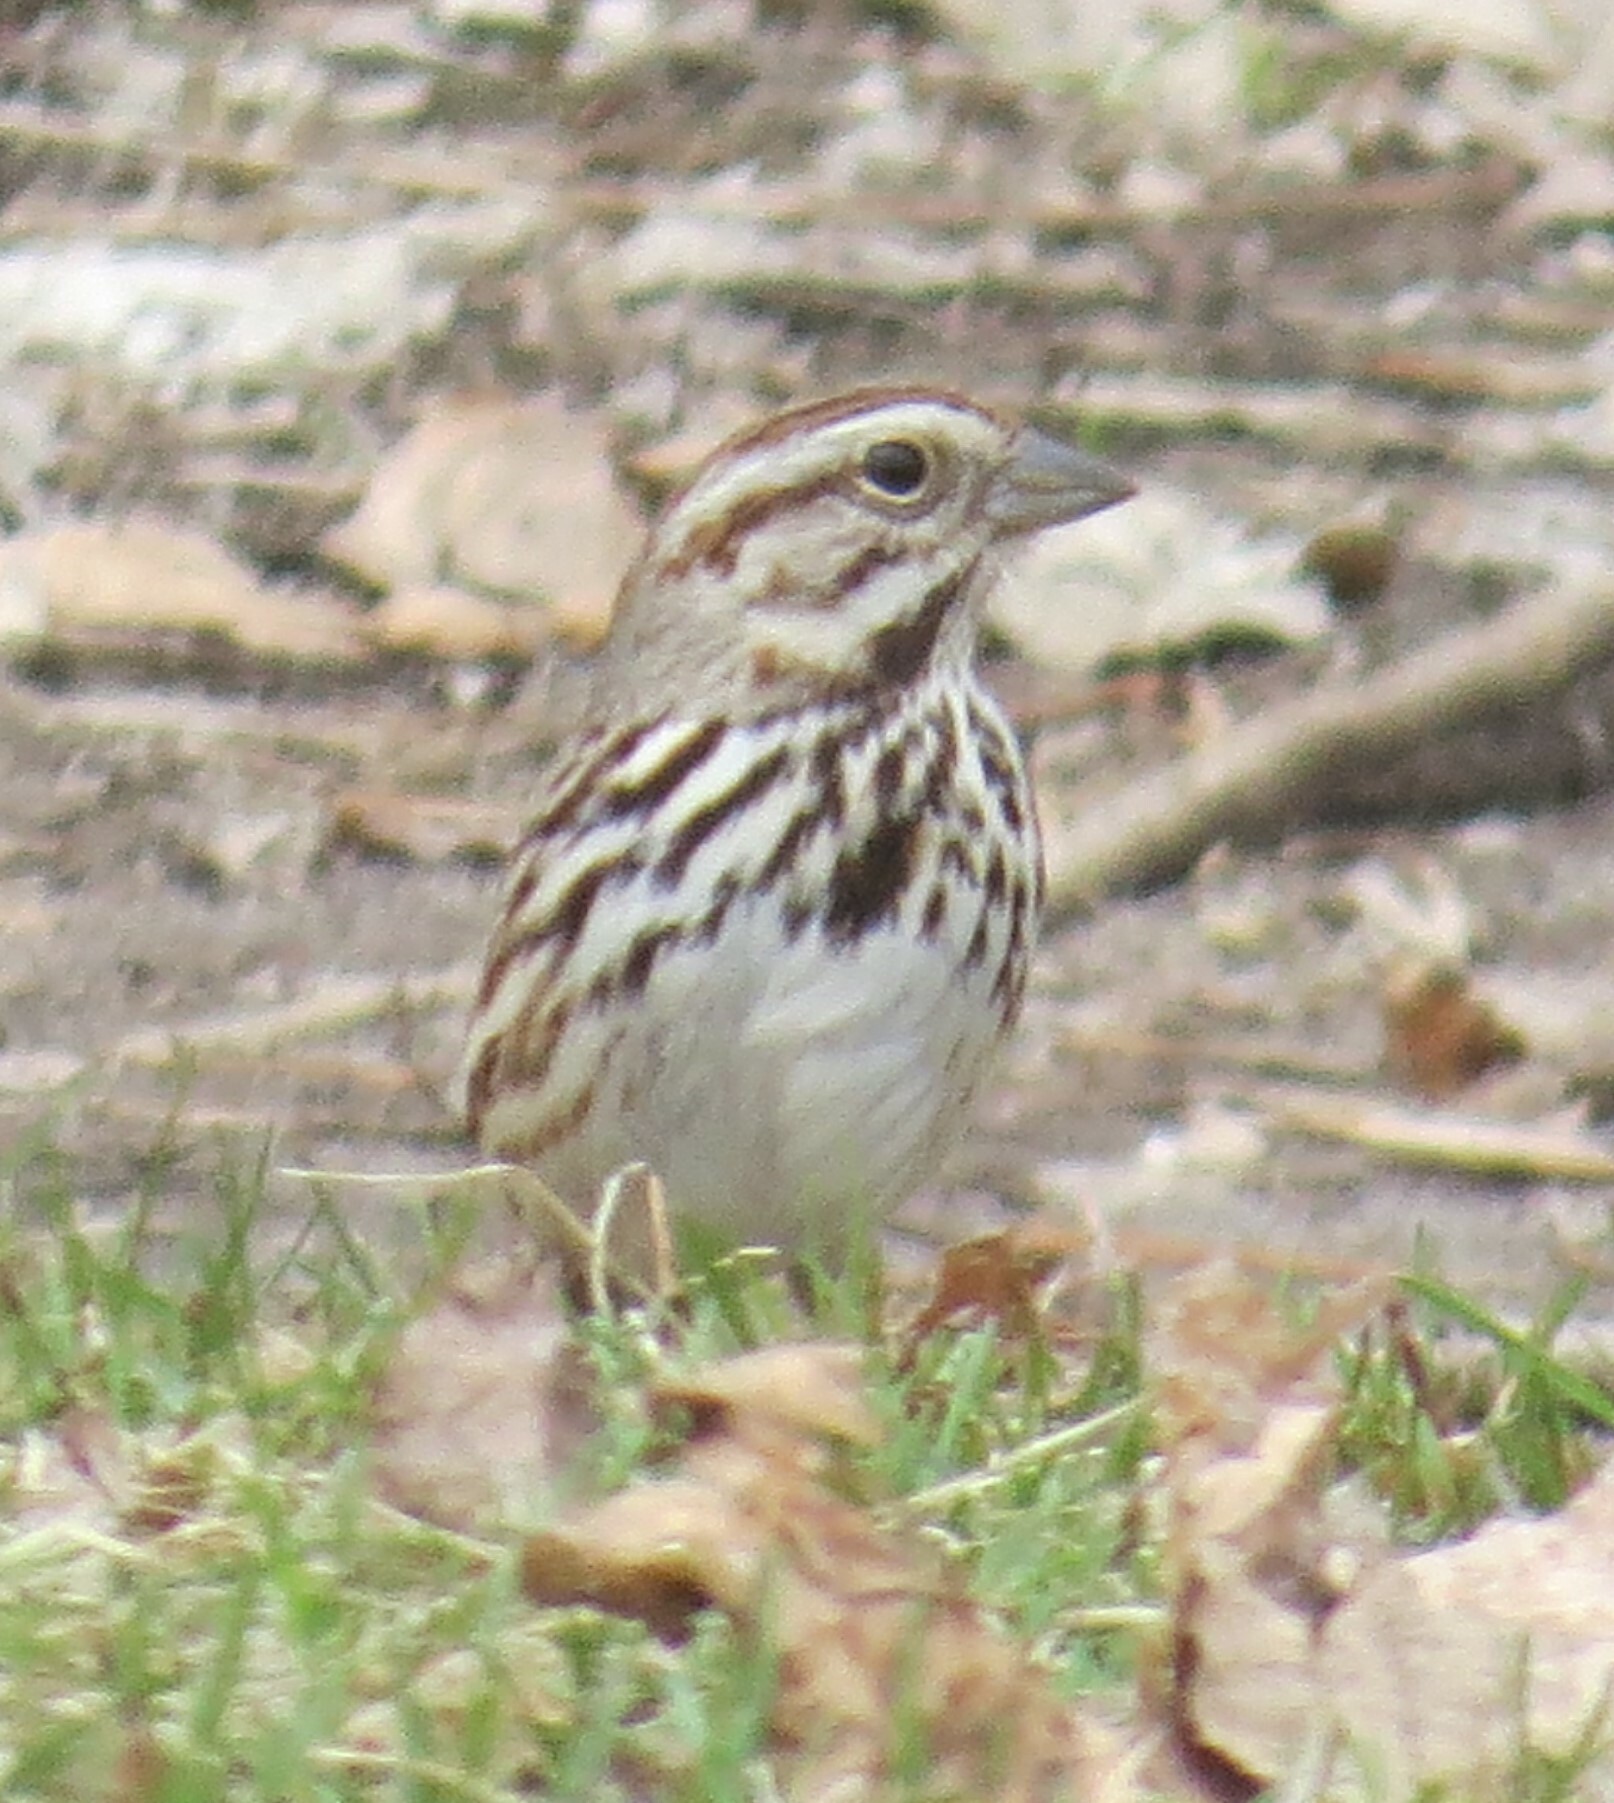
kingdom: Animalia
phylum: Chordata
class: Aves
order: Passeriformes
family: Passerellidae
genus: Melospiza
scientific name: Melospiza melodia
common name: Song sparrow
